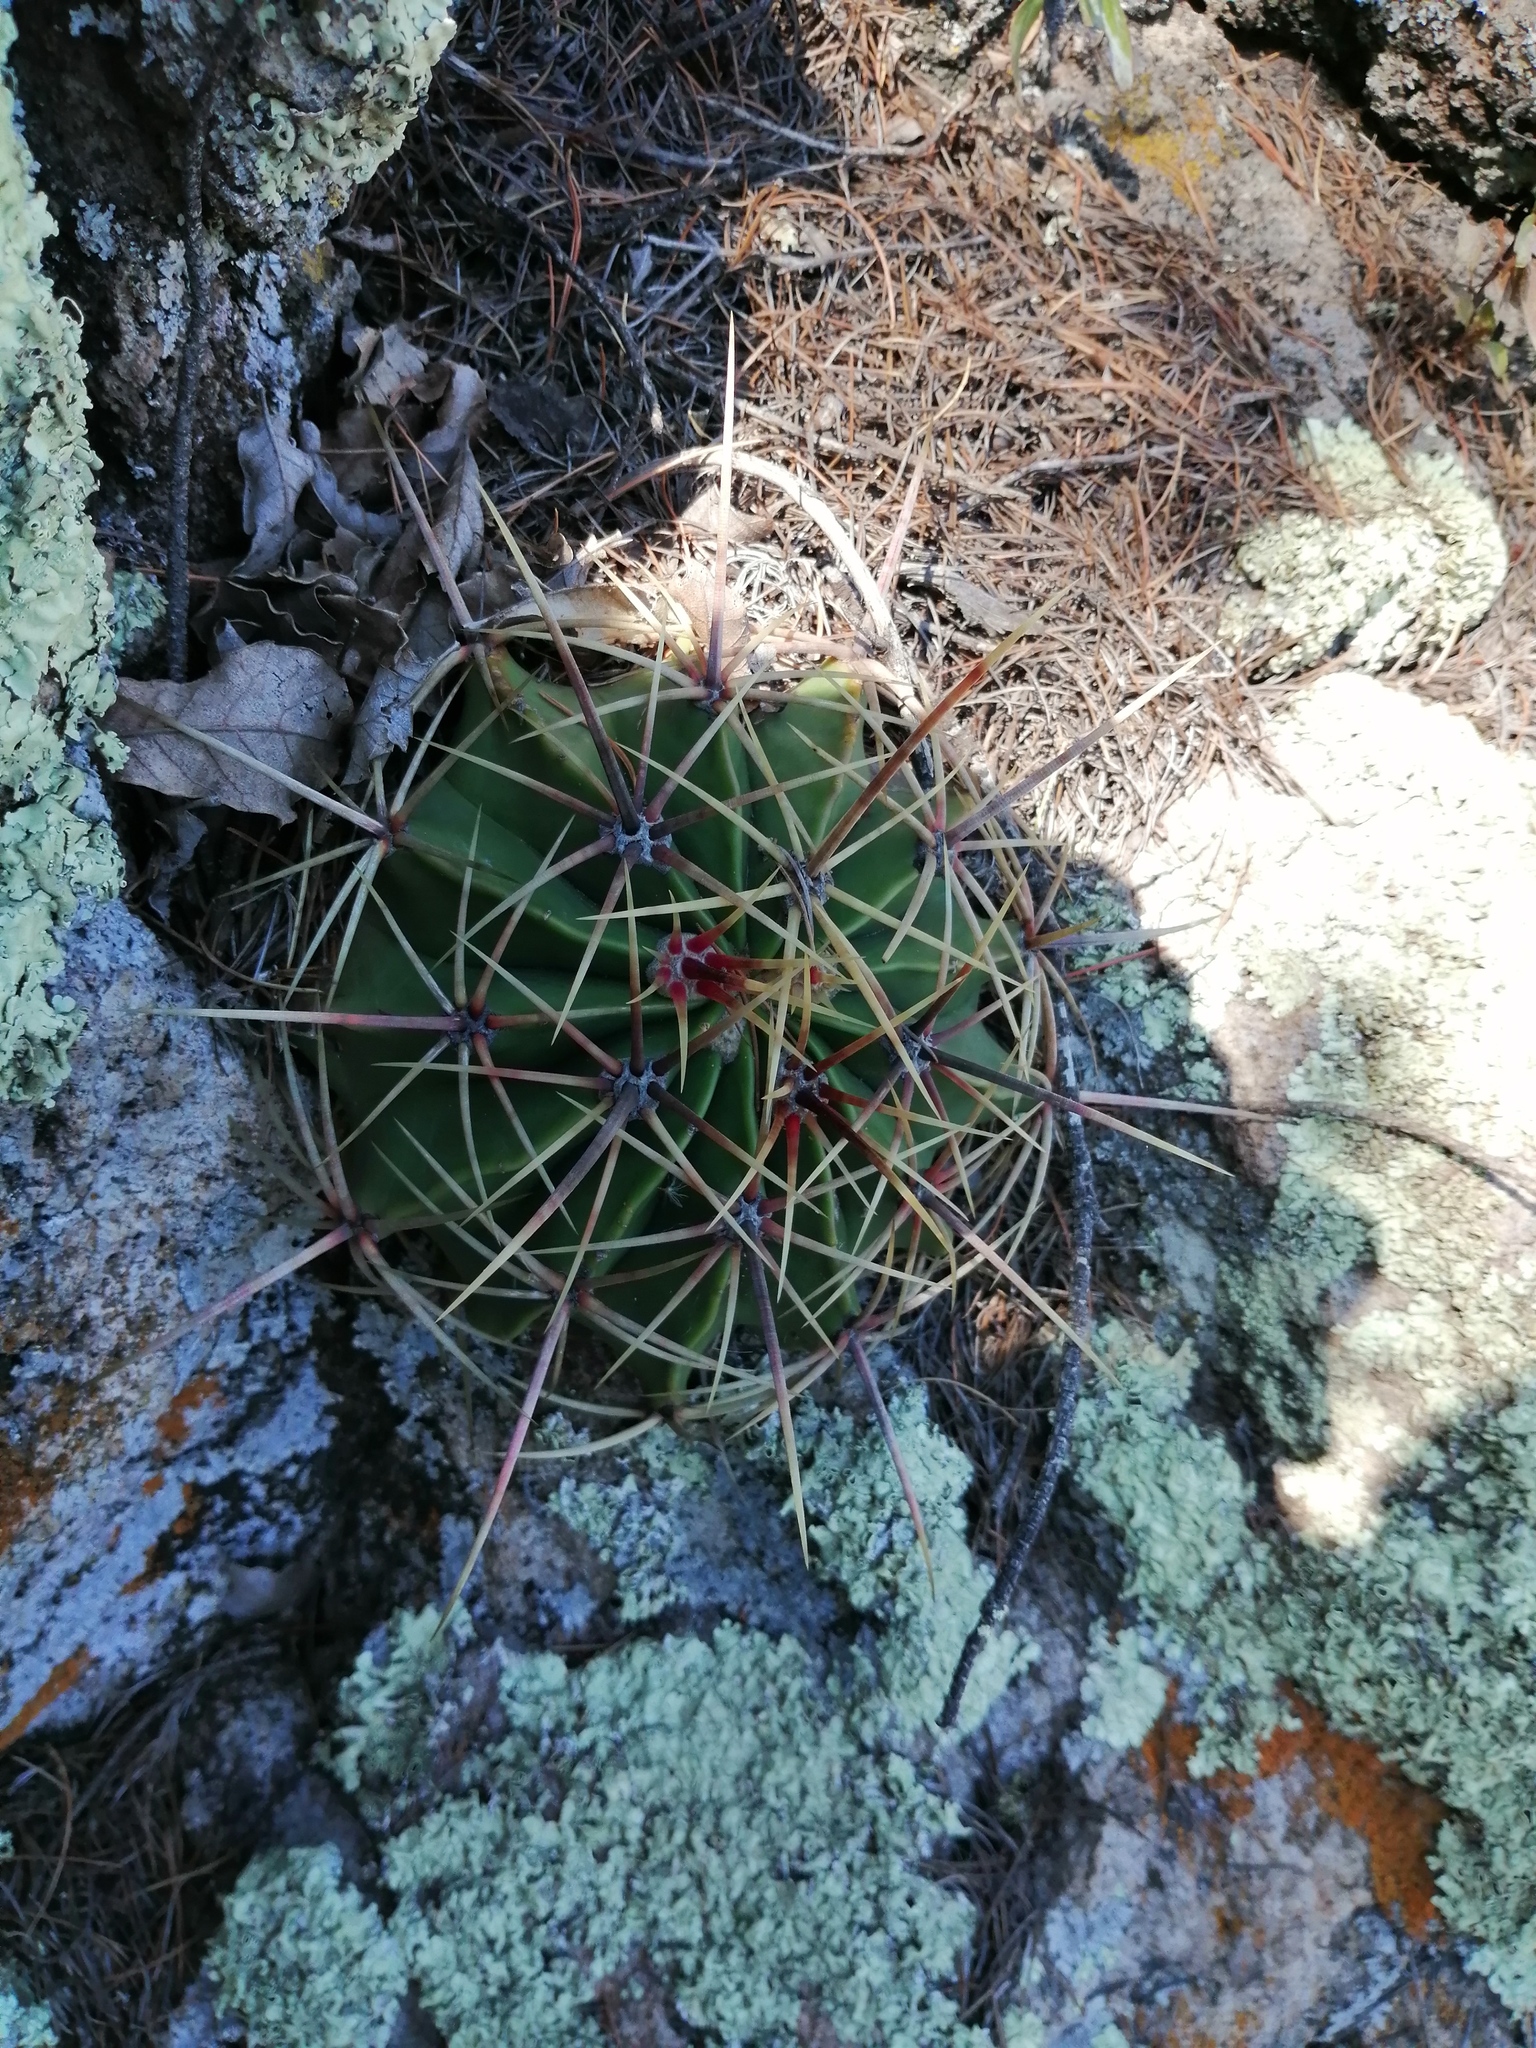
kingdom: Plantae
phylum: Tracheophyta
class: Magnoliopsida
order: Caryophyllales
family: Cactaceae
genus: Bisnaga
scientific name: Bisnaga histrix
